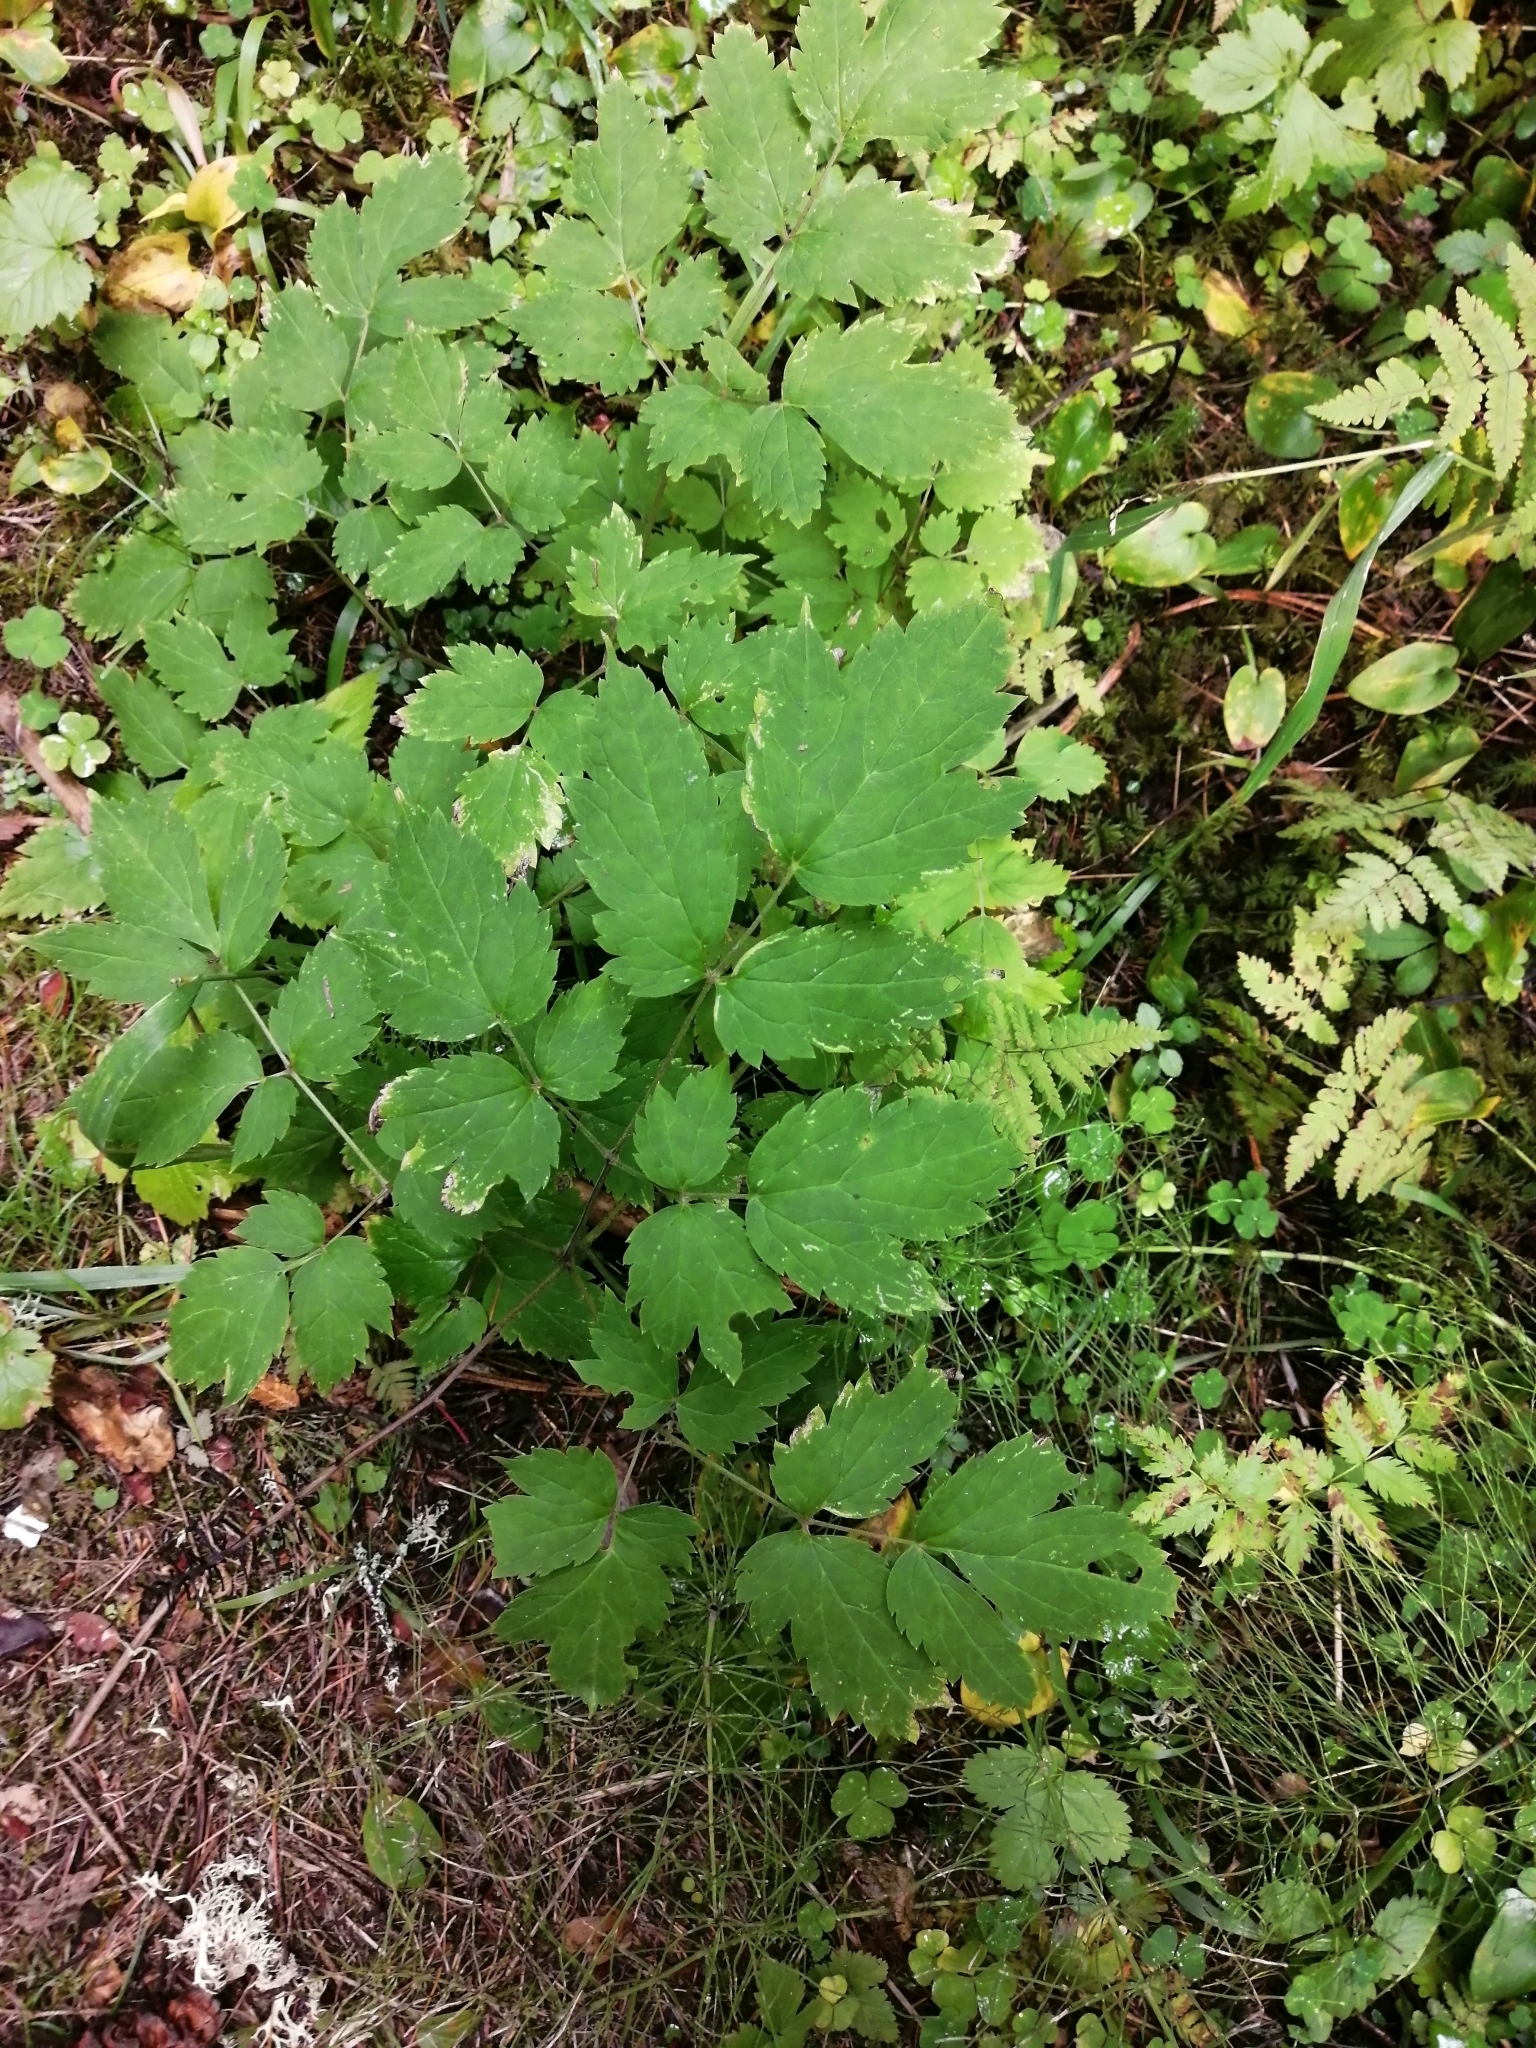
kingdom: Plantae
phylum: Tracheophyta
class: Magnoliopsida
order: Ranunculales
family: Ranunculaceae
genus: Actaea
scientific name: Actaea erythrocarpa
